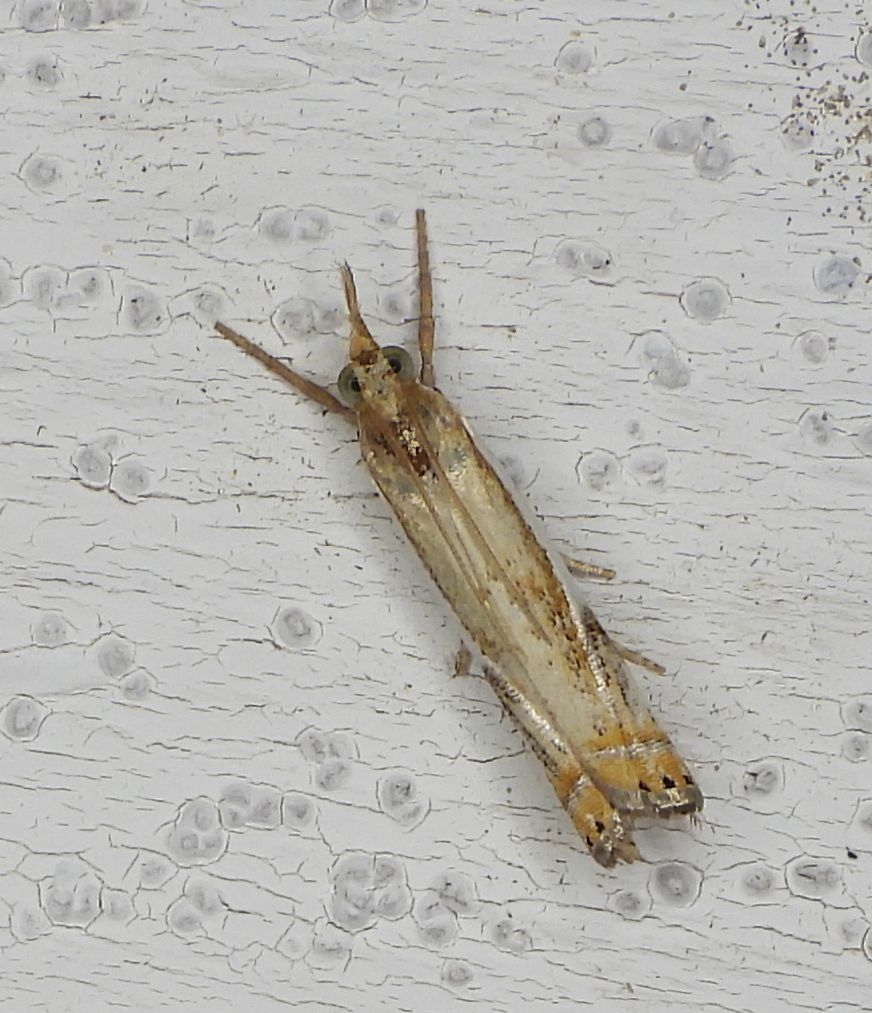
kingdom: Animalia
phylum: Arthropoda
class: Insecta
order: Lepidoptera
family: Crambidae
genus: Crambus
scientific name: Crambus agitatellus
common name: Double-banded grass-veneer
